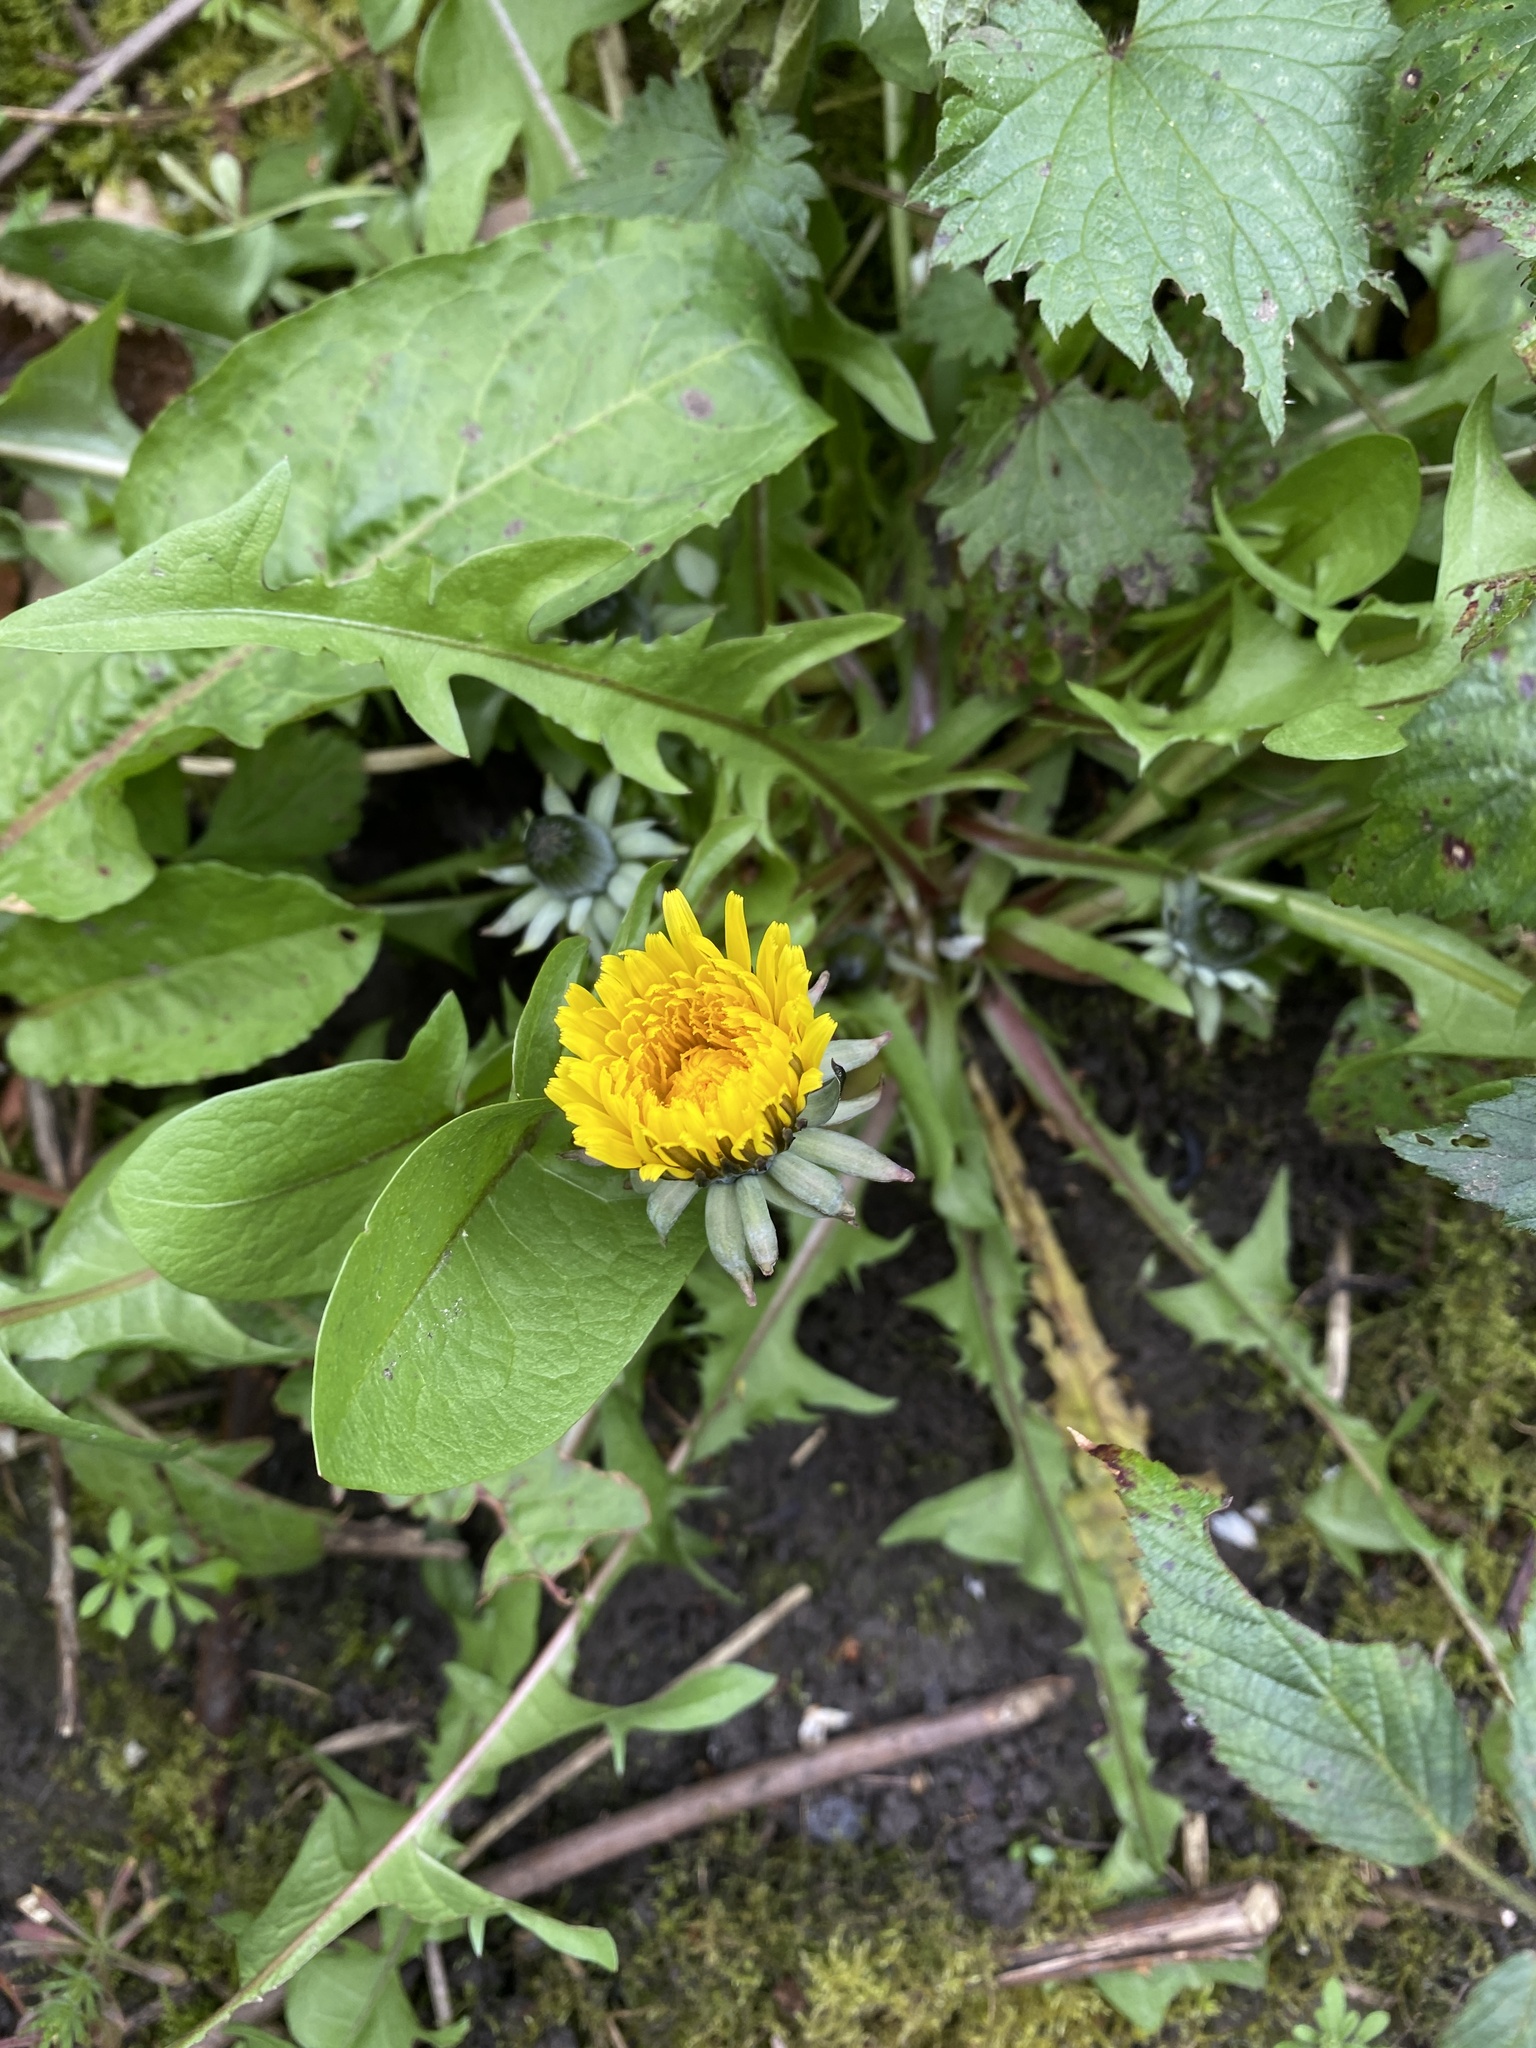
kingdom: Plantae
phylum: Tracheophyta
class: Magnoliopsida
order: Asterales
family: Asteraceae
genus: Taraxacum
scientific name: Taraxacum officinale
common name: Common dandelion
